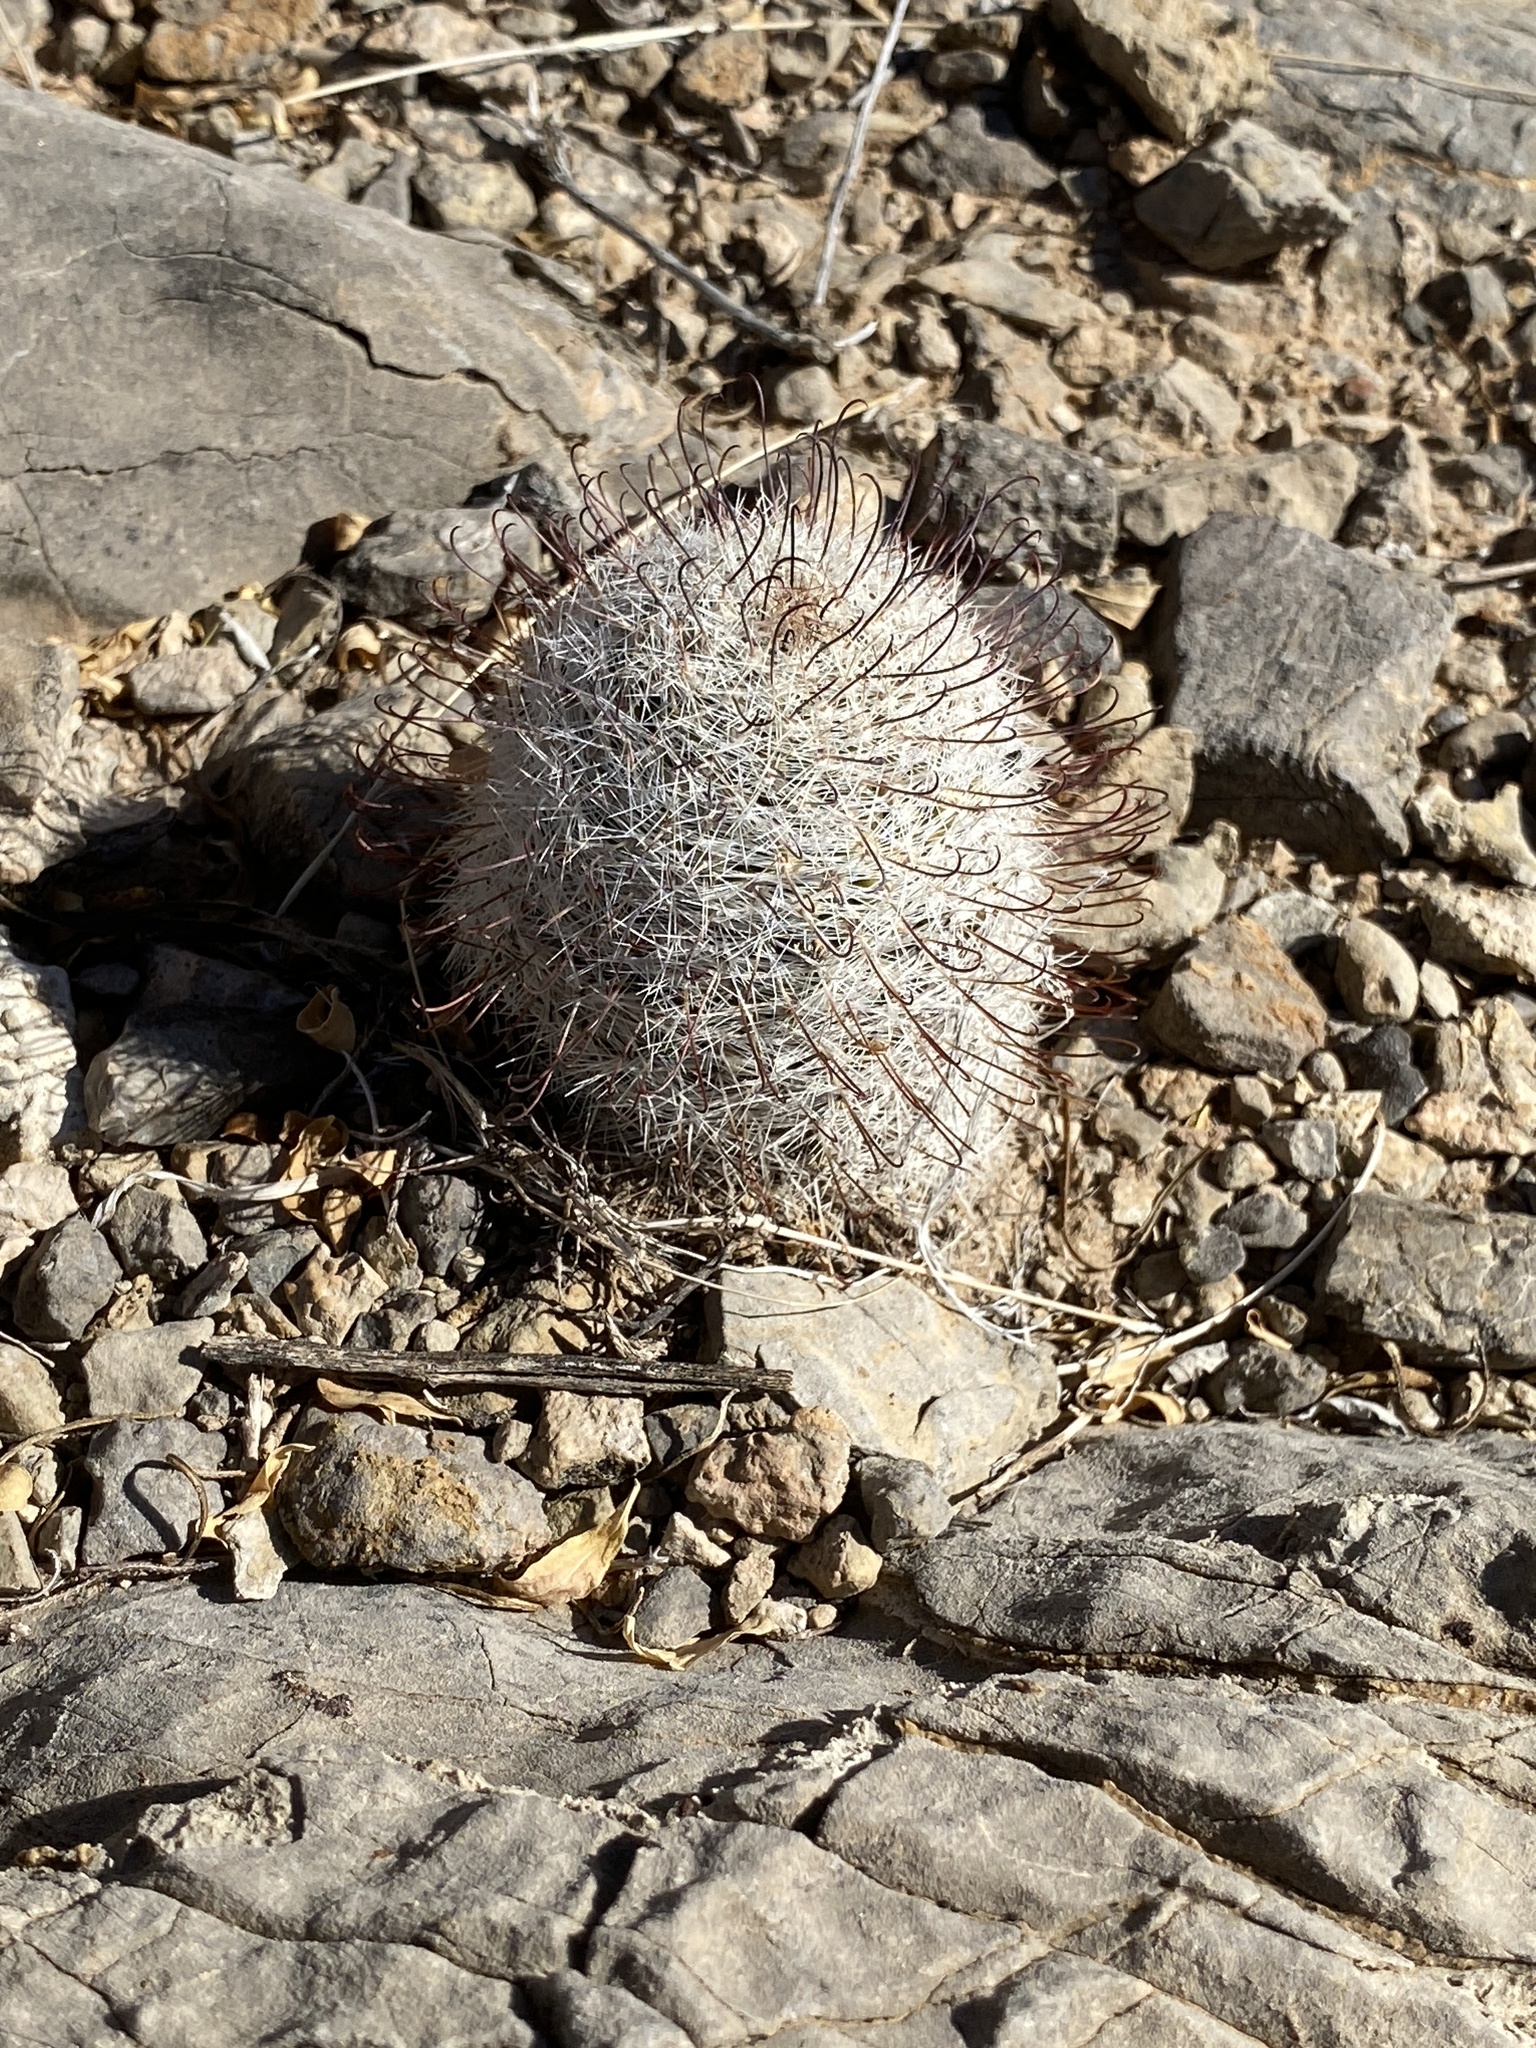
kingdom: Plantae
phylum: Tracheophyta
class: Magnoliopsida
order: Caryophyllales
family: Cactaceae
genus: Cochemiea
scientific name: Cochemiea grahamii
